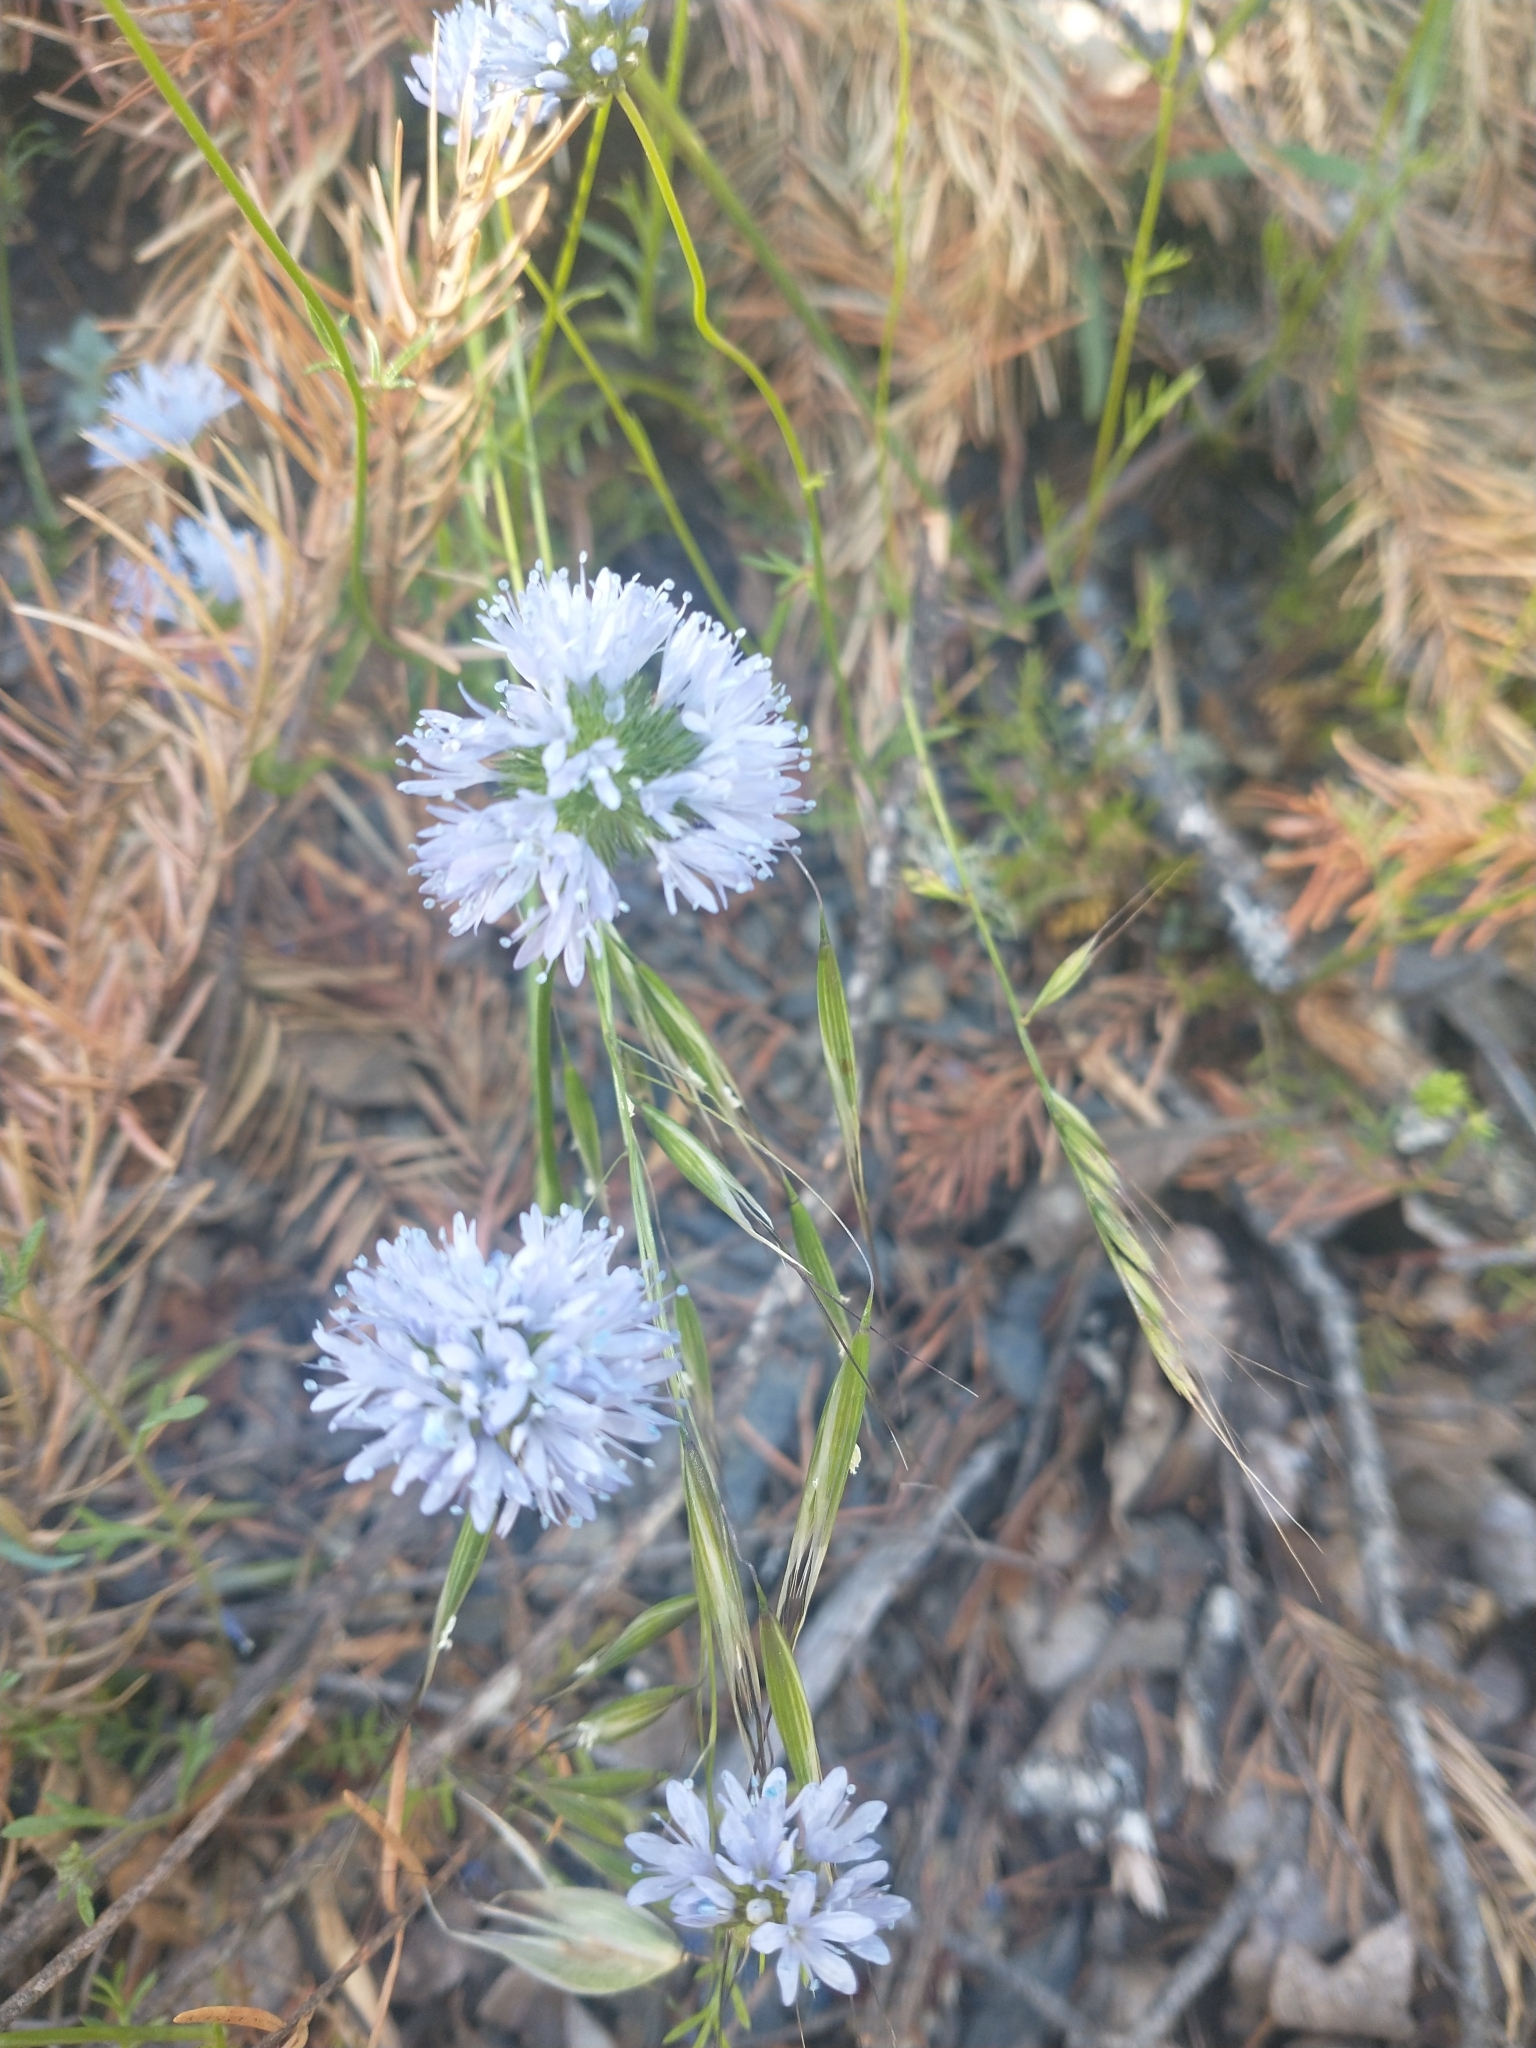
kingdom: Plantae
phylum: Tracheophyta
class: Magnoliopsida
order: Ericales
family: Polemoniaceae
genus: Gilia
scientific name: Gilia capitata
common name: Bluehead gilia
